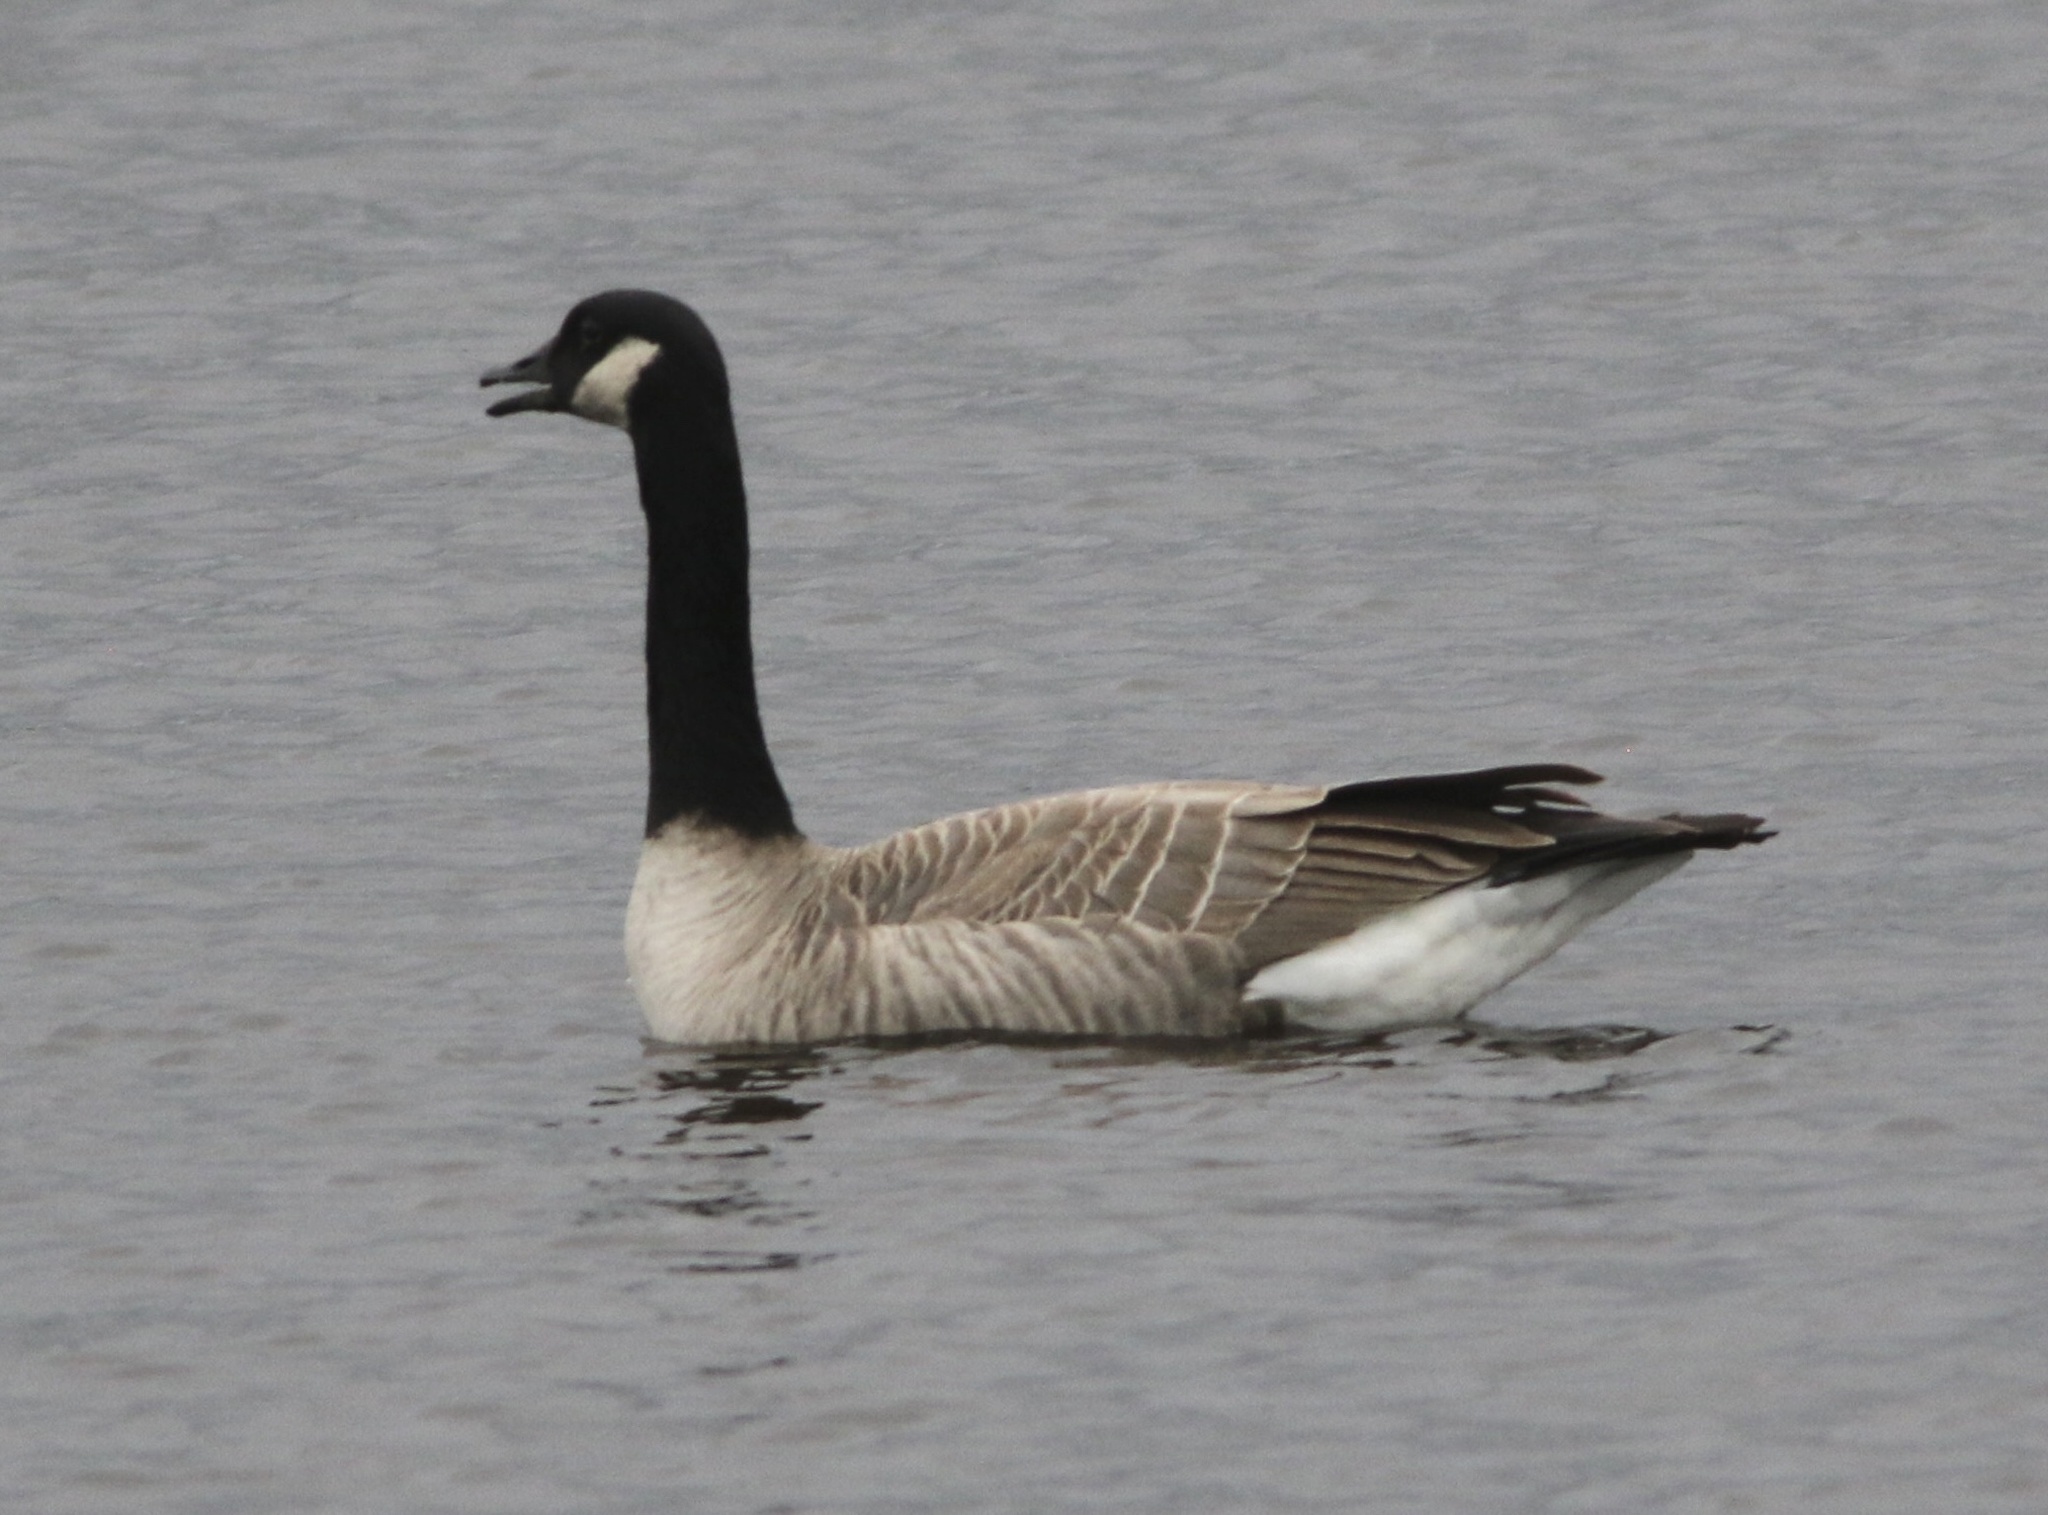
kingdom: Animalia
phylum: Chordata
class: Aves
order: Anseriformes
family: Anatidae
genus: Branta
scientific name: Branta canadensis
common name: Canada goose
